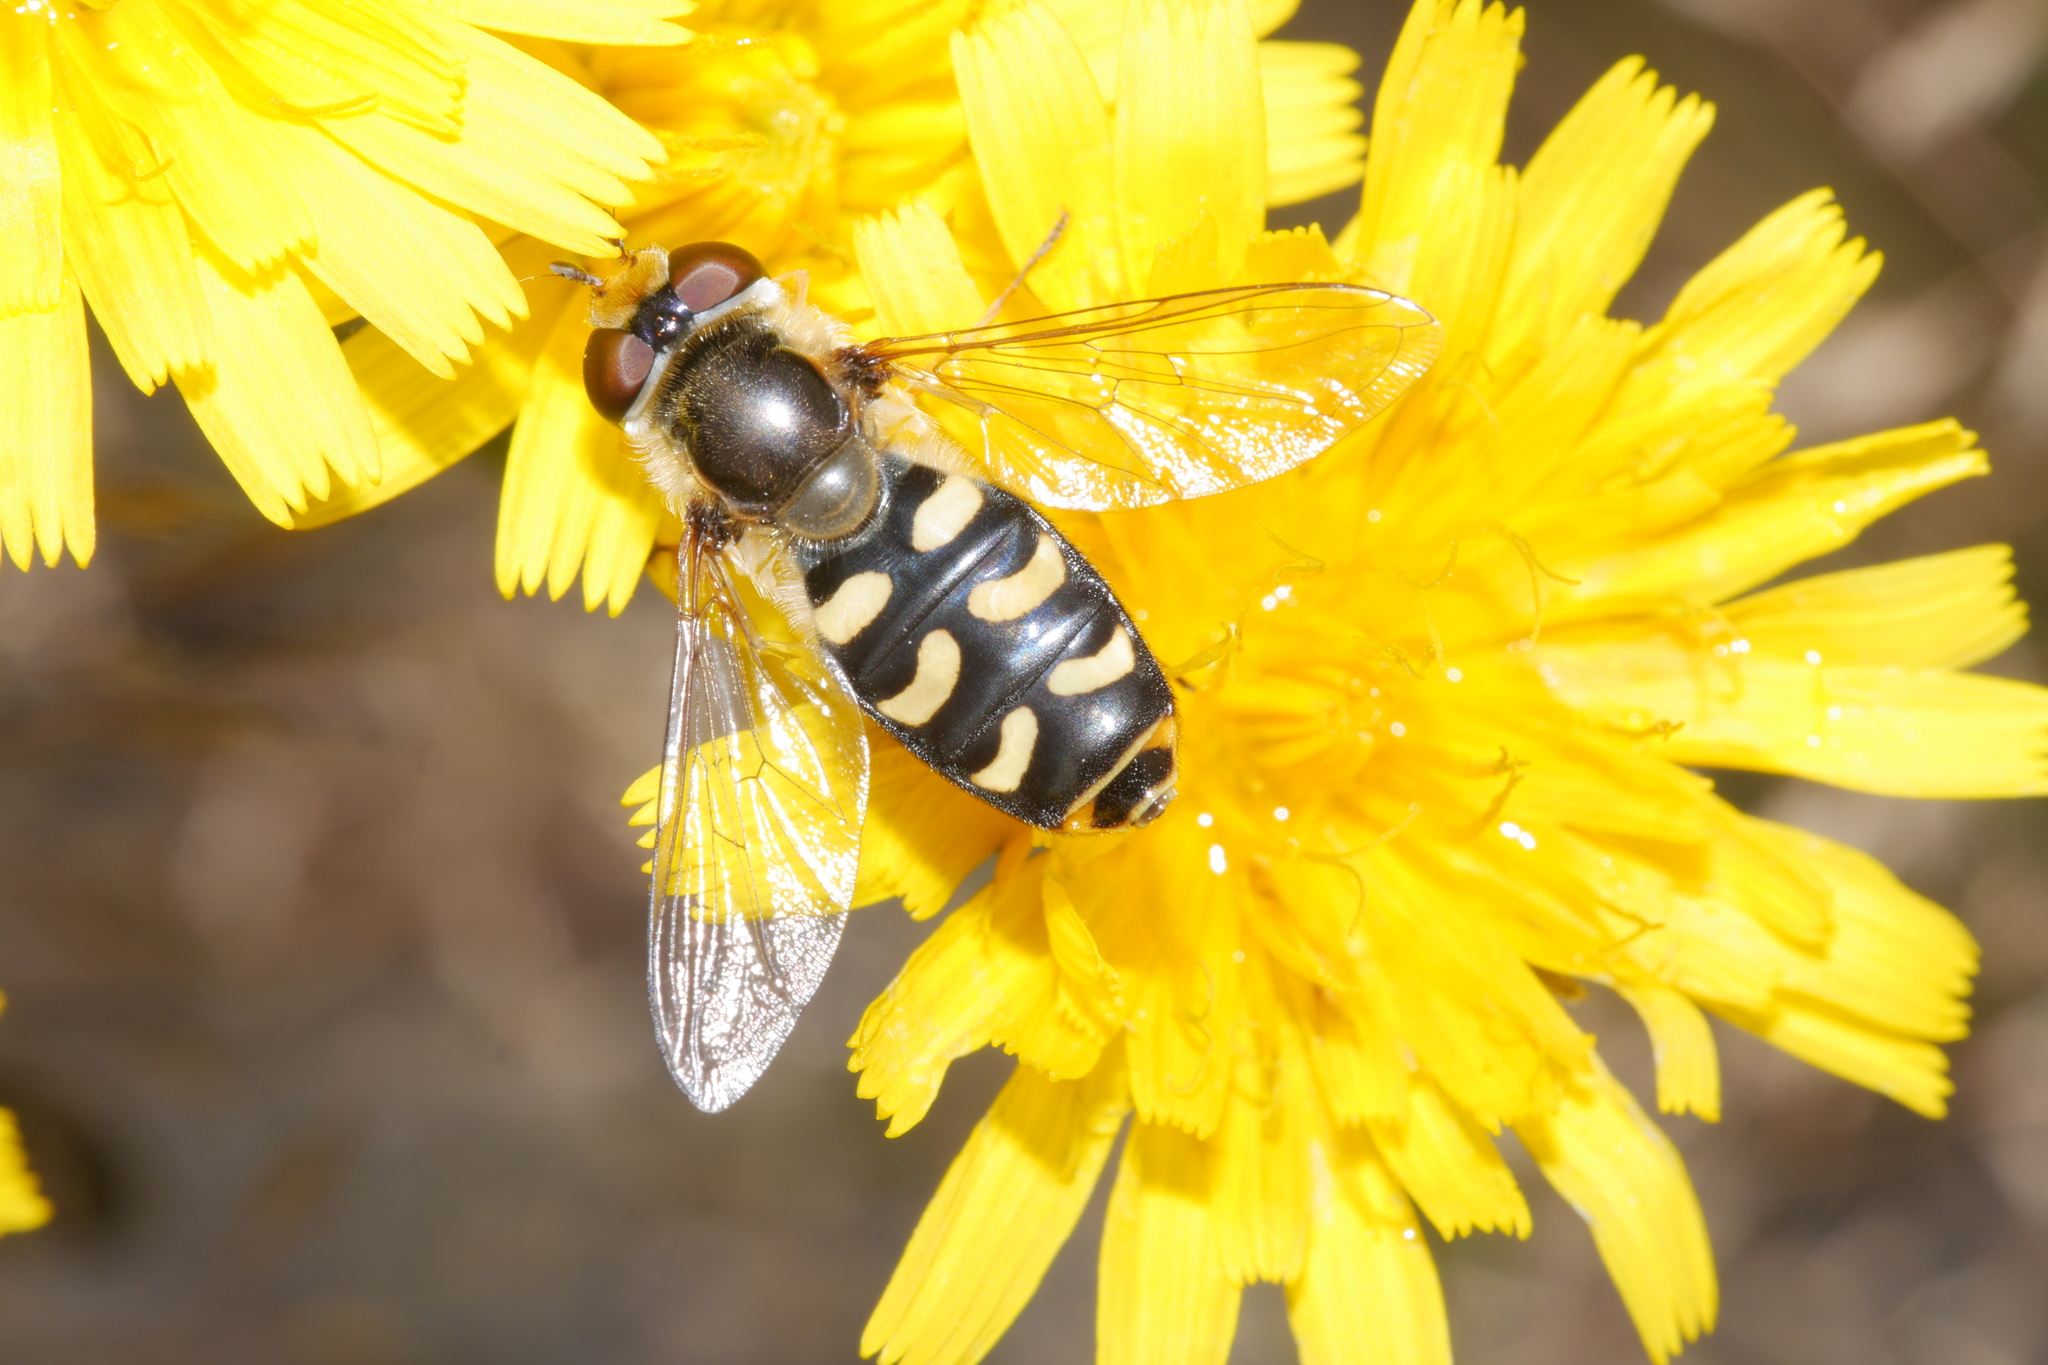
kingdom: Animalia
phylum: Arthropoda
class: Insecta
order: Diptera
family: Syrphidae
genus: Scaeva
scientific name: Scaeva pyrastri
